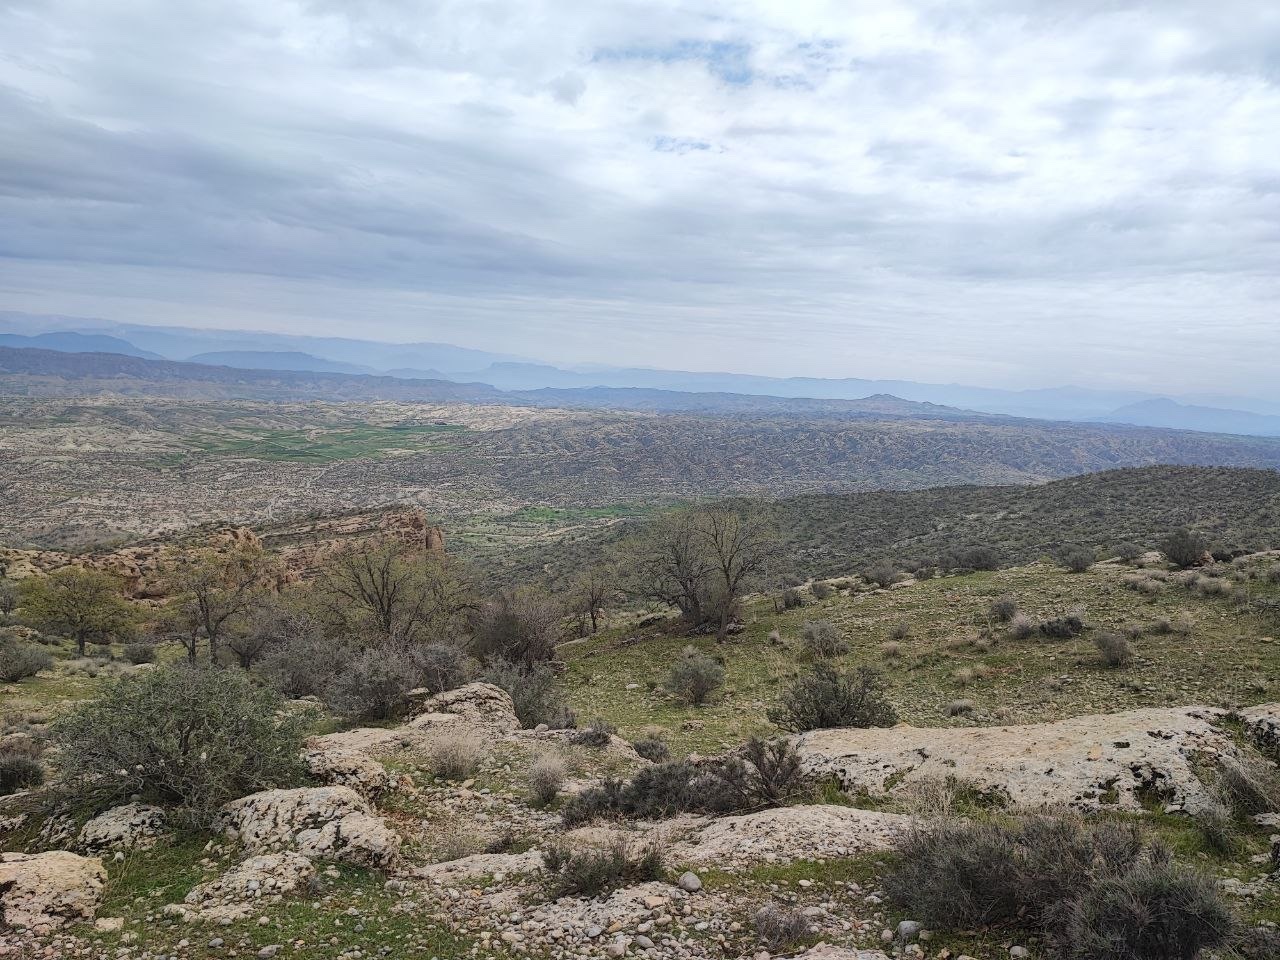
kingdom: Animalia
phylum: Arthropoda
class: Arachnida
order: Scorpiones
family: Buthidae
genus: Compsobuthus
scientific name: Compsobuthus petriolii
